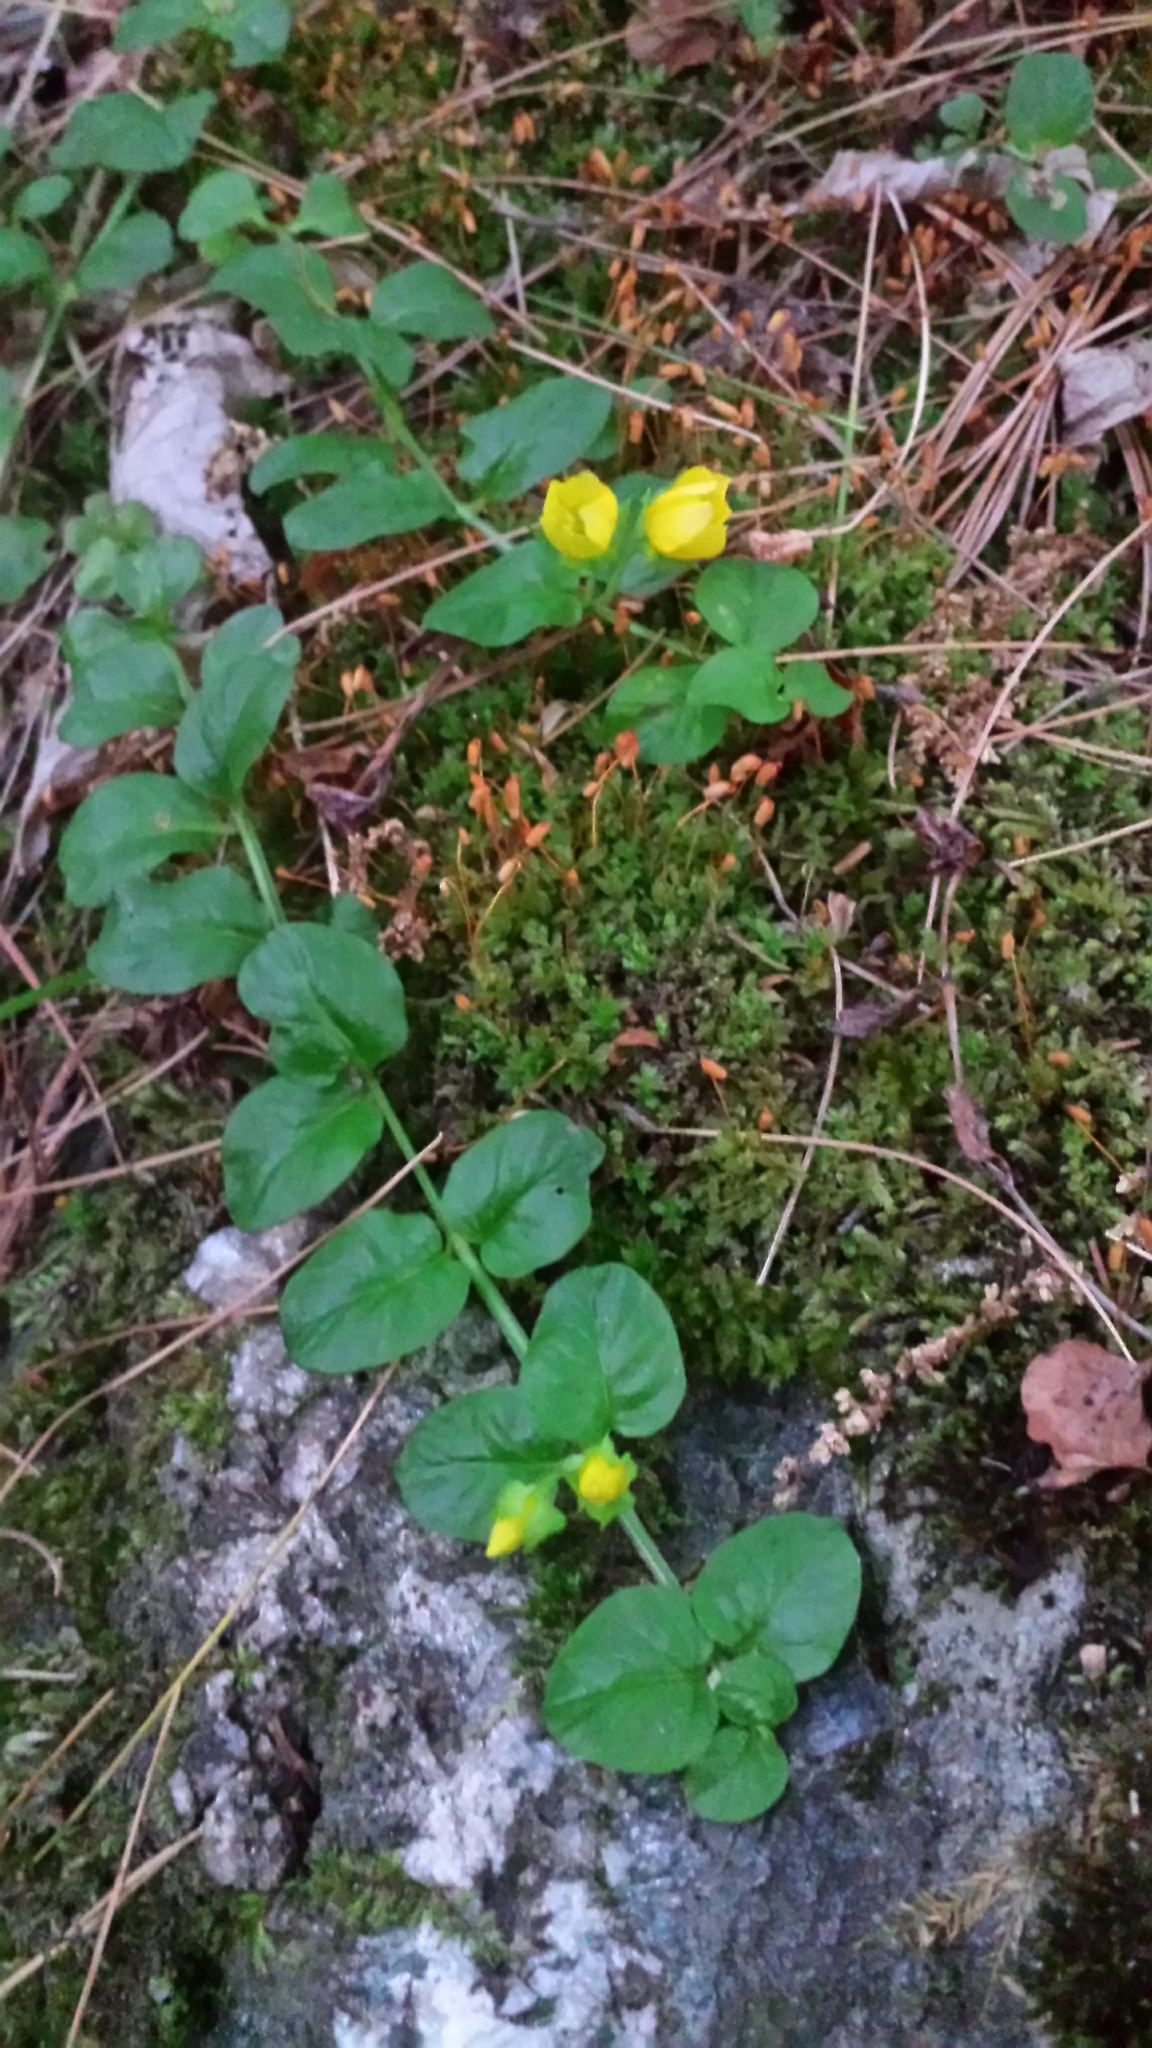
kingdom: Plantae
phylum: Tracheophyta
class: Magnoliopsida
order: Ericales
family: Primulaceae
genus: Lysimachia
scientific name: Lysimachia nummularia
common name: Moneywort
